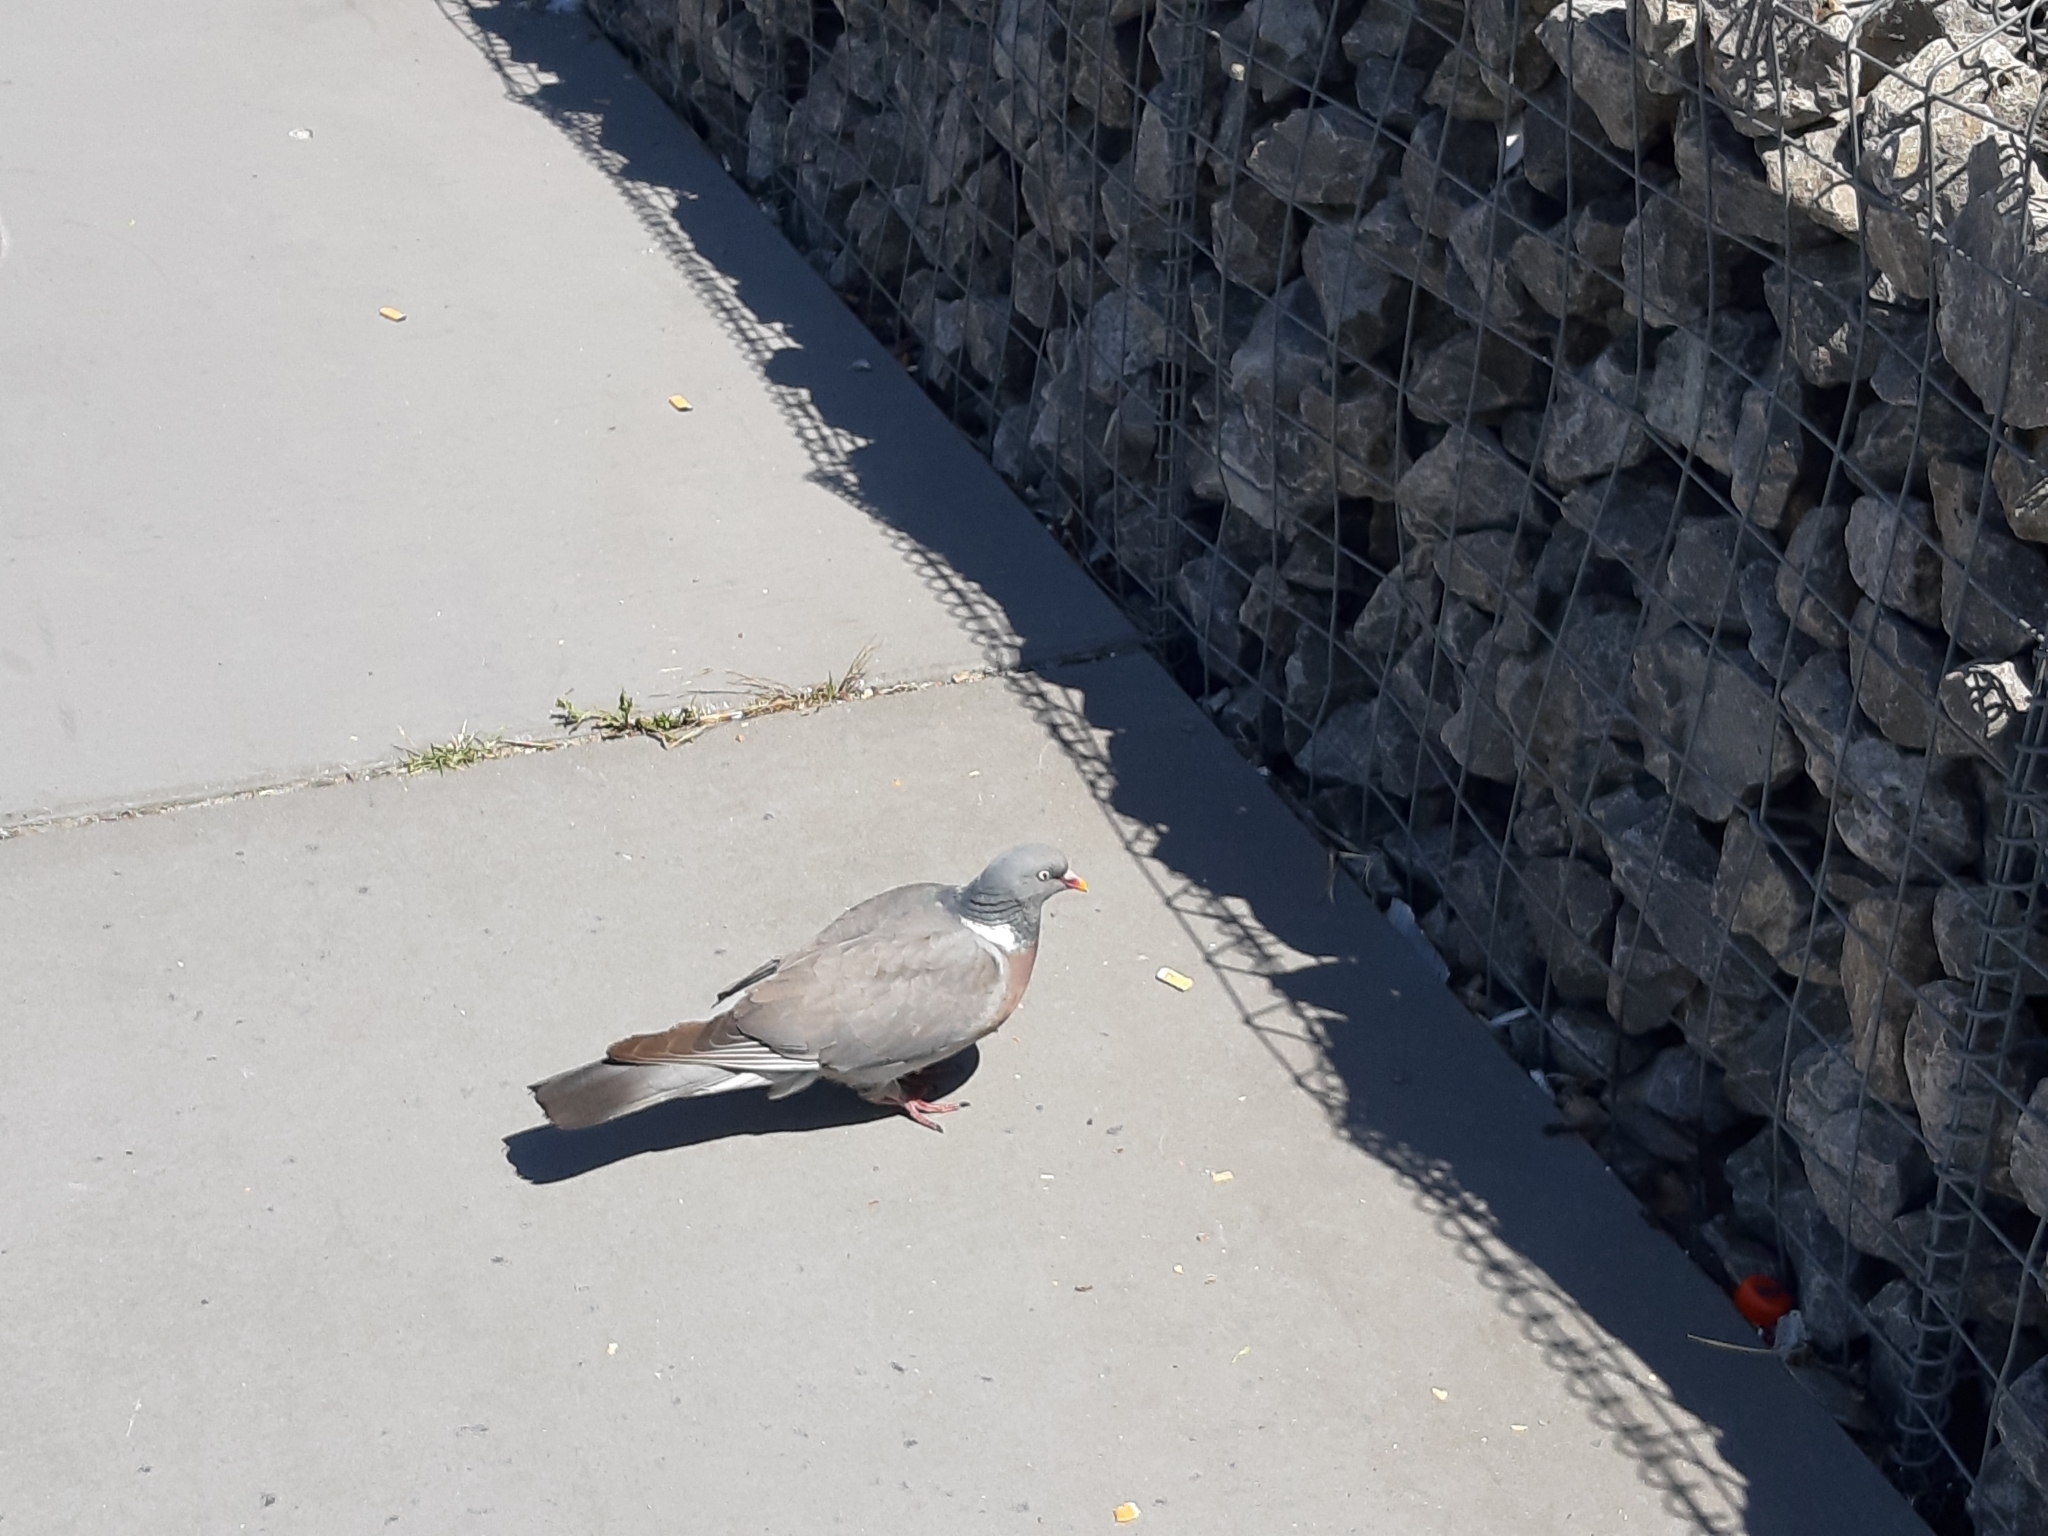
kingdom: Animalia
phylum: Chordata
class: Aves
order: Columbiformes
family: Columbidae
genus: Columba
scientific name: Columba palumbus
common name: Common wood pigeon
